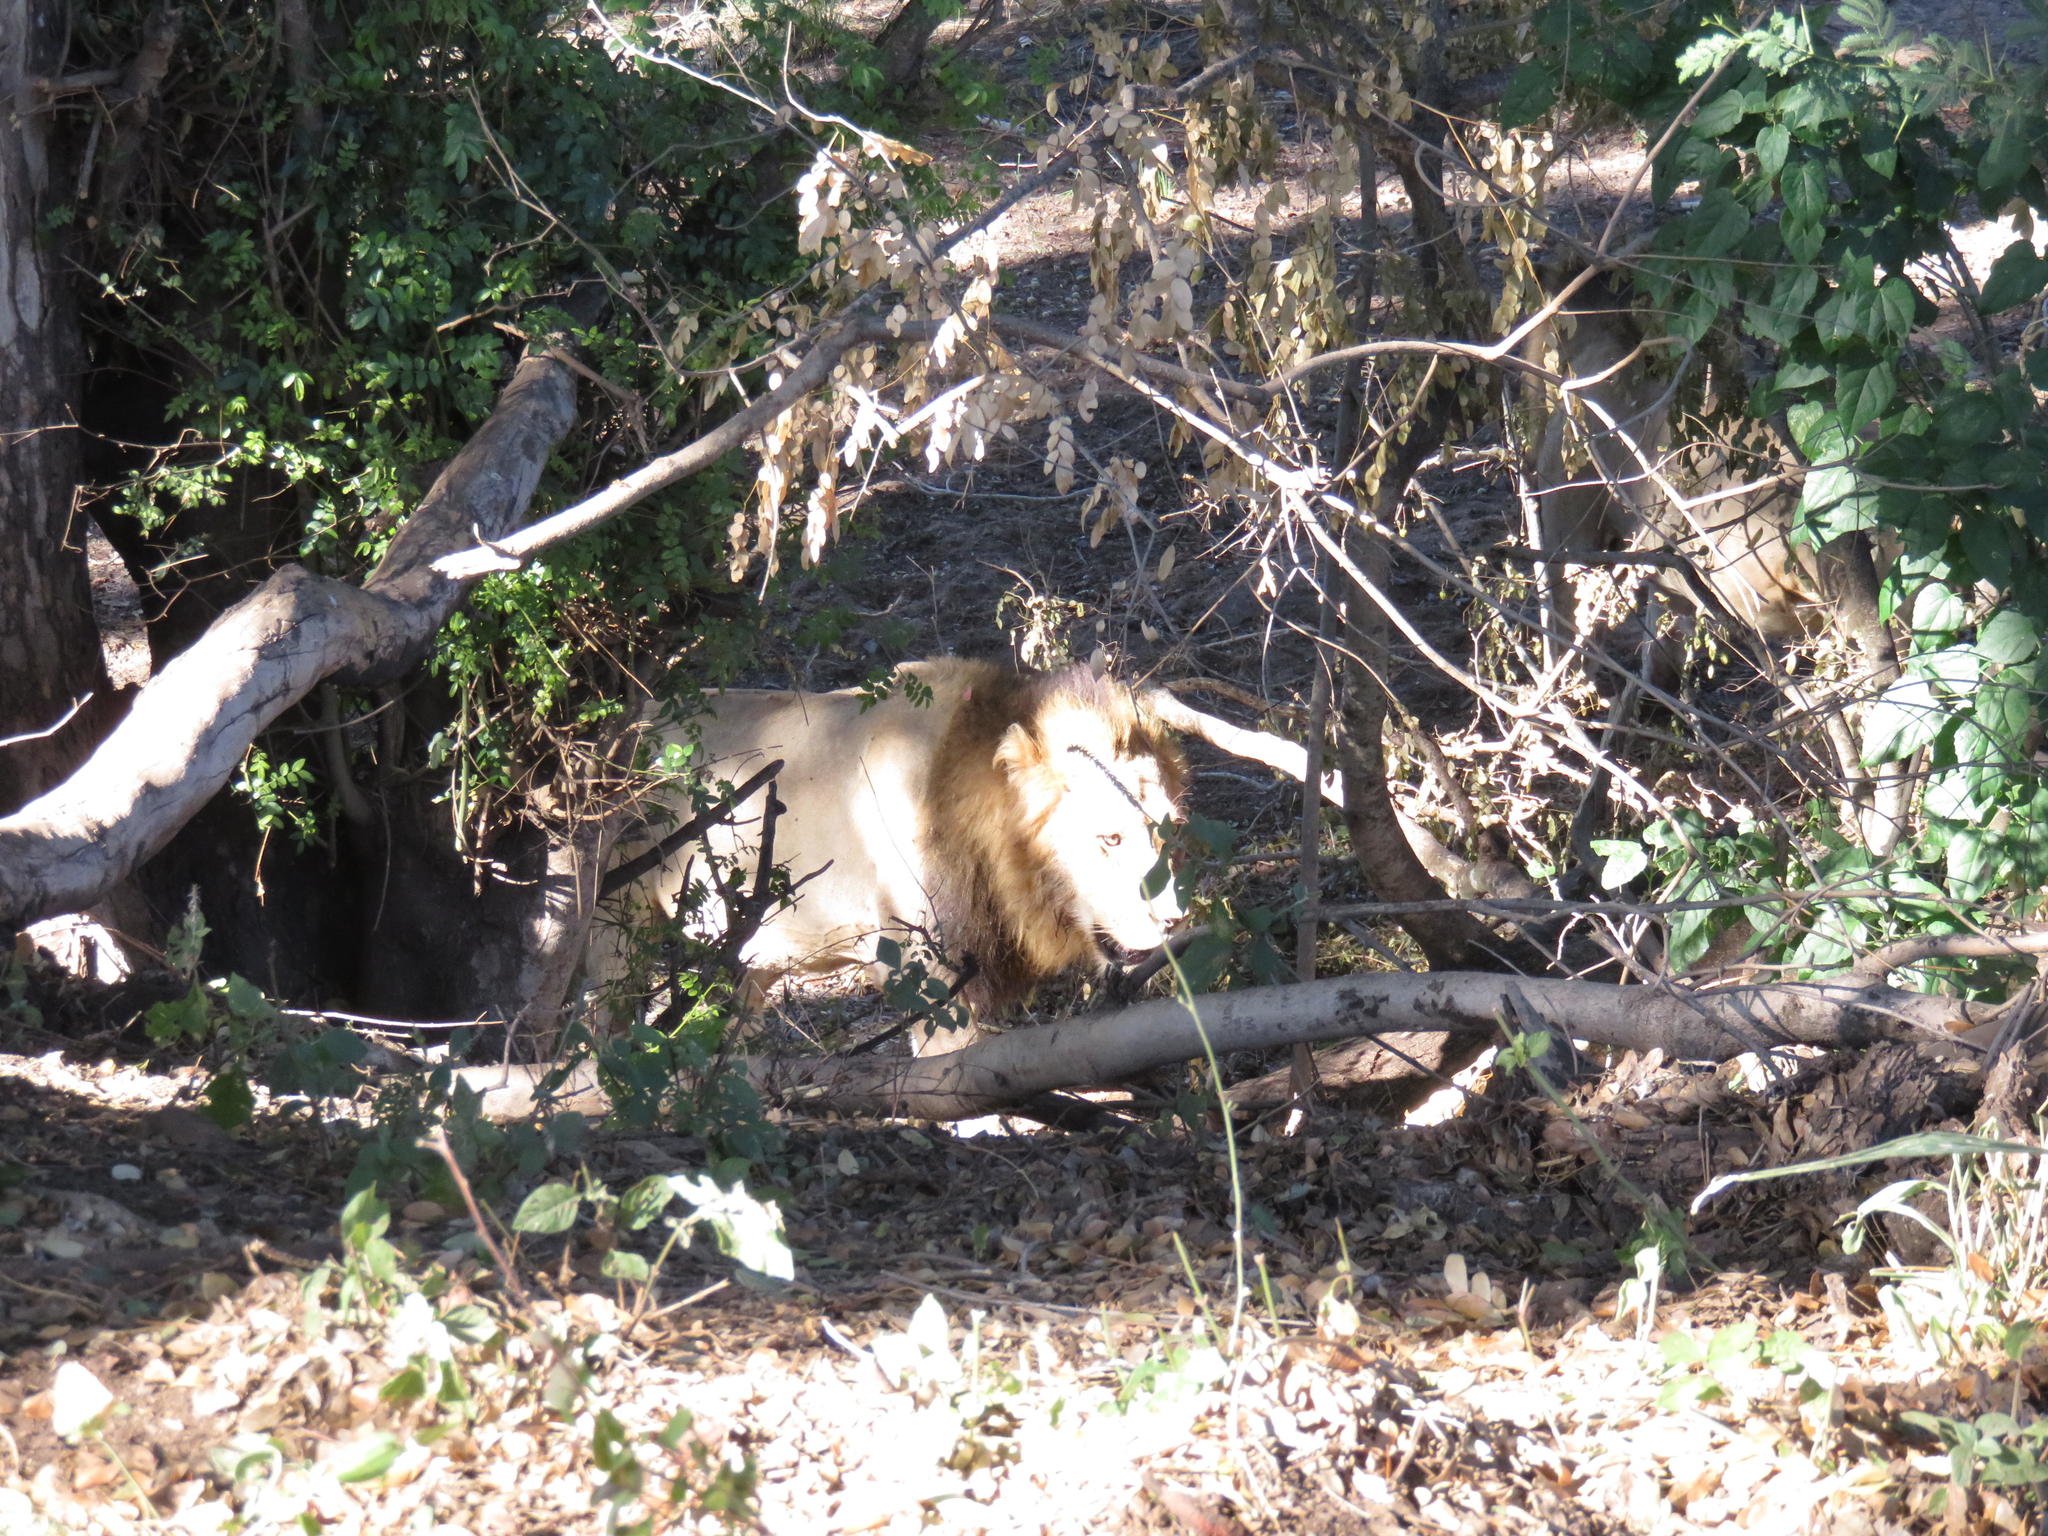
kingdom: Animalia
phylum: Chordata
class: Mammalia
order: Carnivora
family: Felidae
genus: Panthera
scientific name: Panthera leo
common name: Lion
